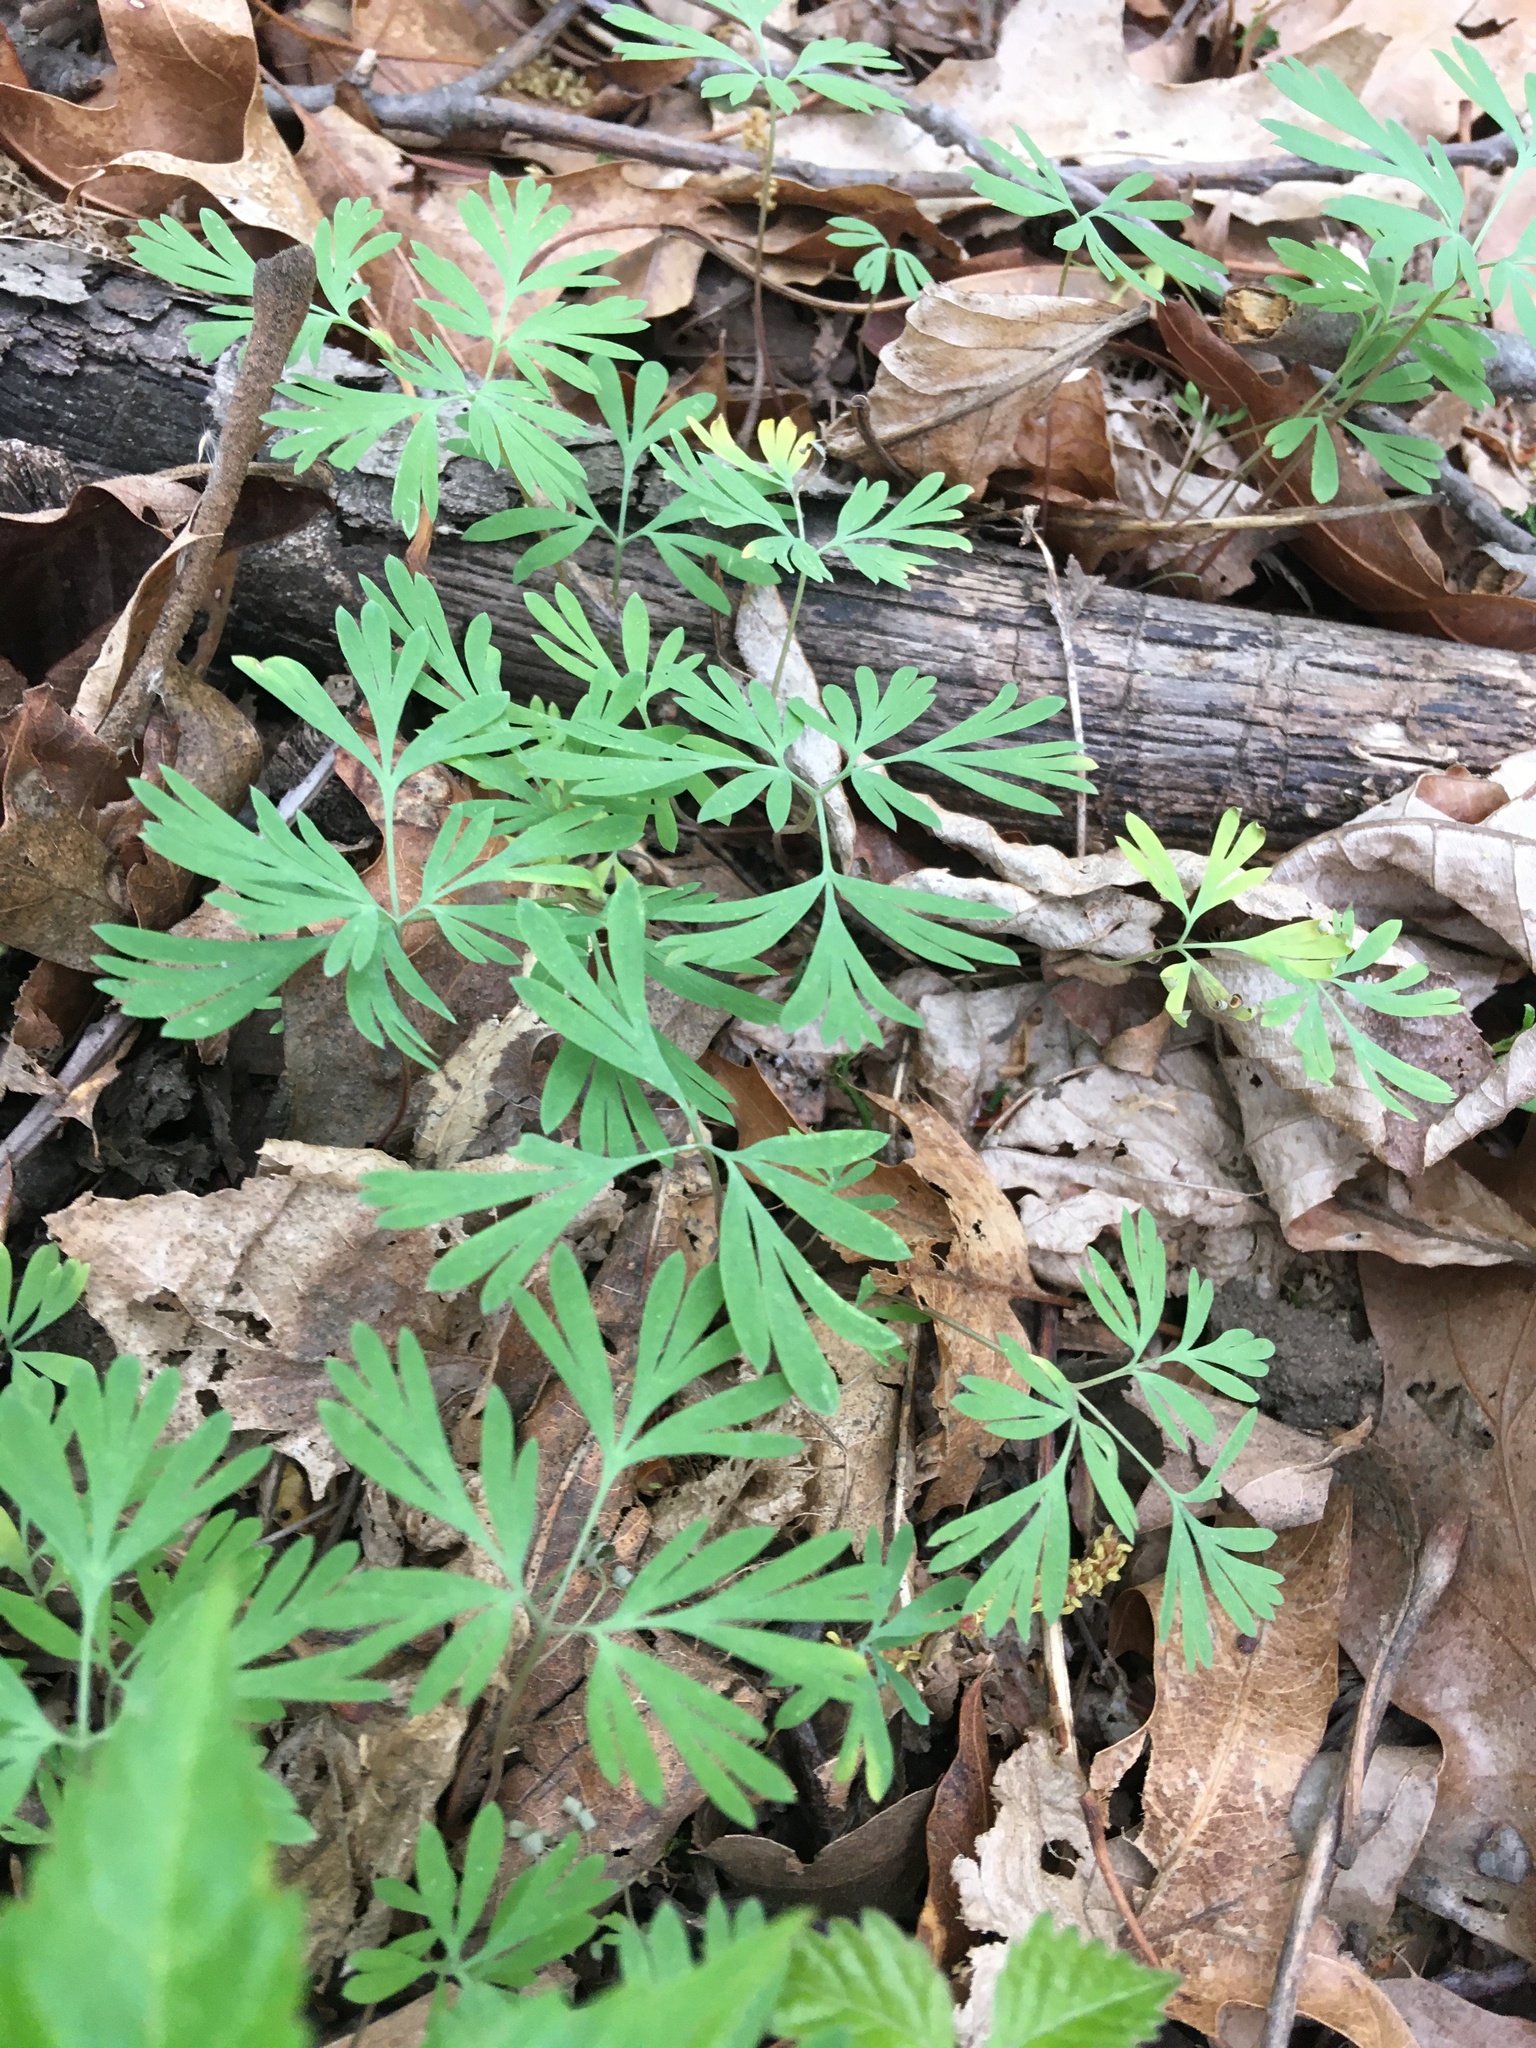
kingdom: Plantae
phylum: Tracheophyta
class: Magnoliopsida
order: Ranunculales
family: Papaveraceae
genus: Dicentra
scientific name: Dicentra cucullaria
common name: Dutchman's breeches
